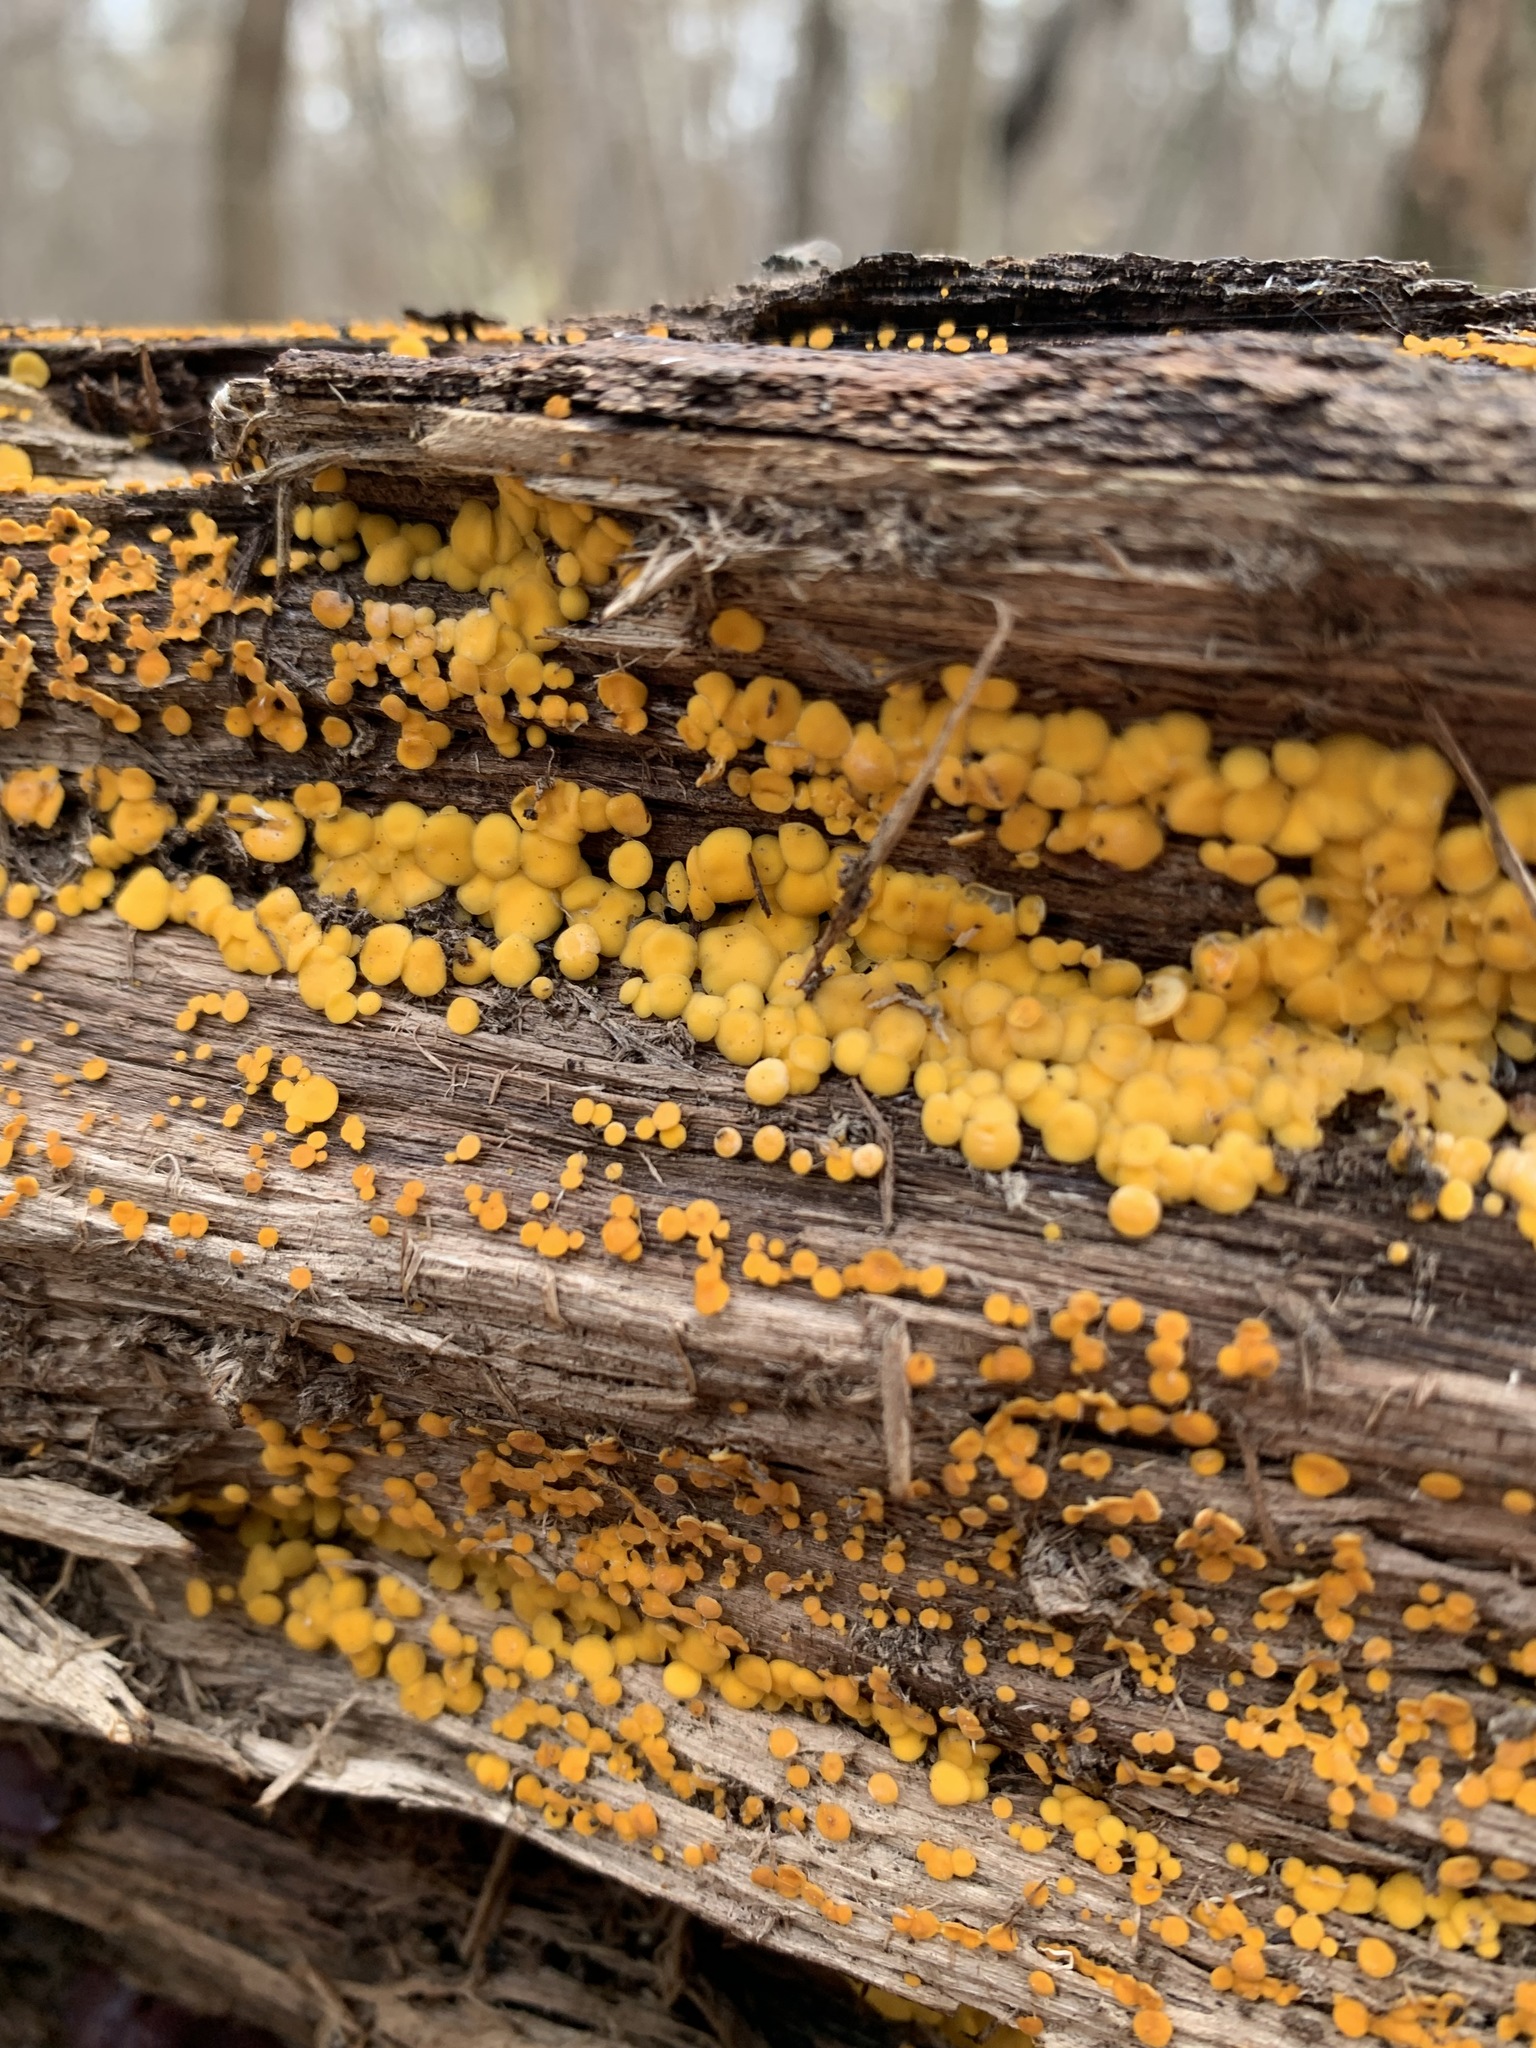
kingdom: Fungi
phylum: Ascomycota
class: Leotiomycetes
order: Helotiales
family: Pezizellaceae
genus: Calycina
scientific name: Calycina citrina
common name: Yellow fairy cups
